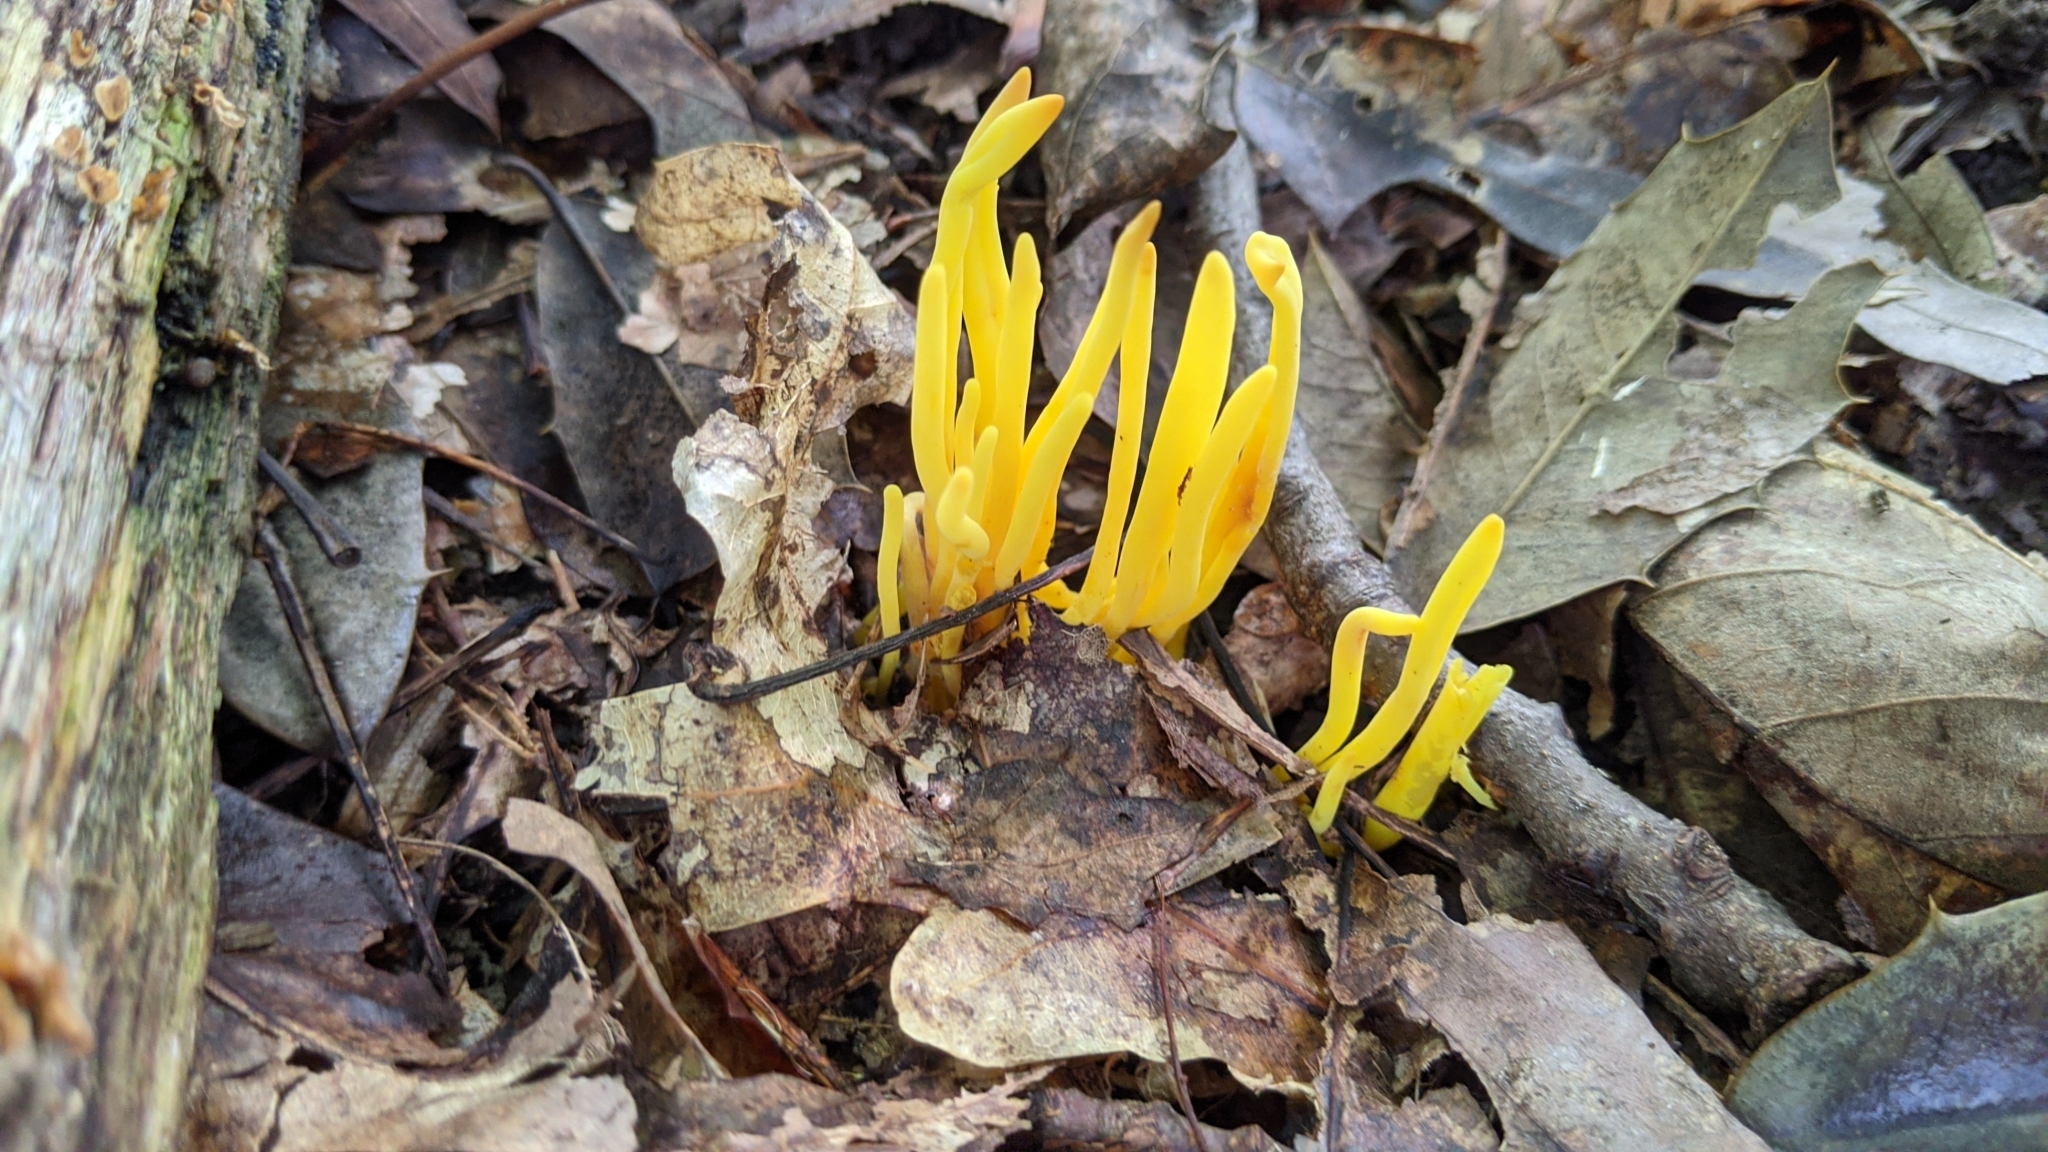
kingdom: Fungi
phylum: Basidiomycota
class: Agaricomycetes
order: Agaricales
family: Clavariaceae
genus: Clavulinopsis
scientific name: Clavulinopsis fusiformis
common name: Golden spindles
